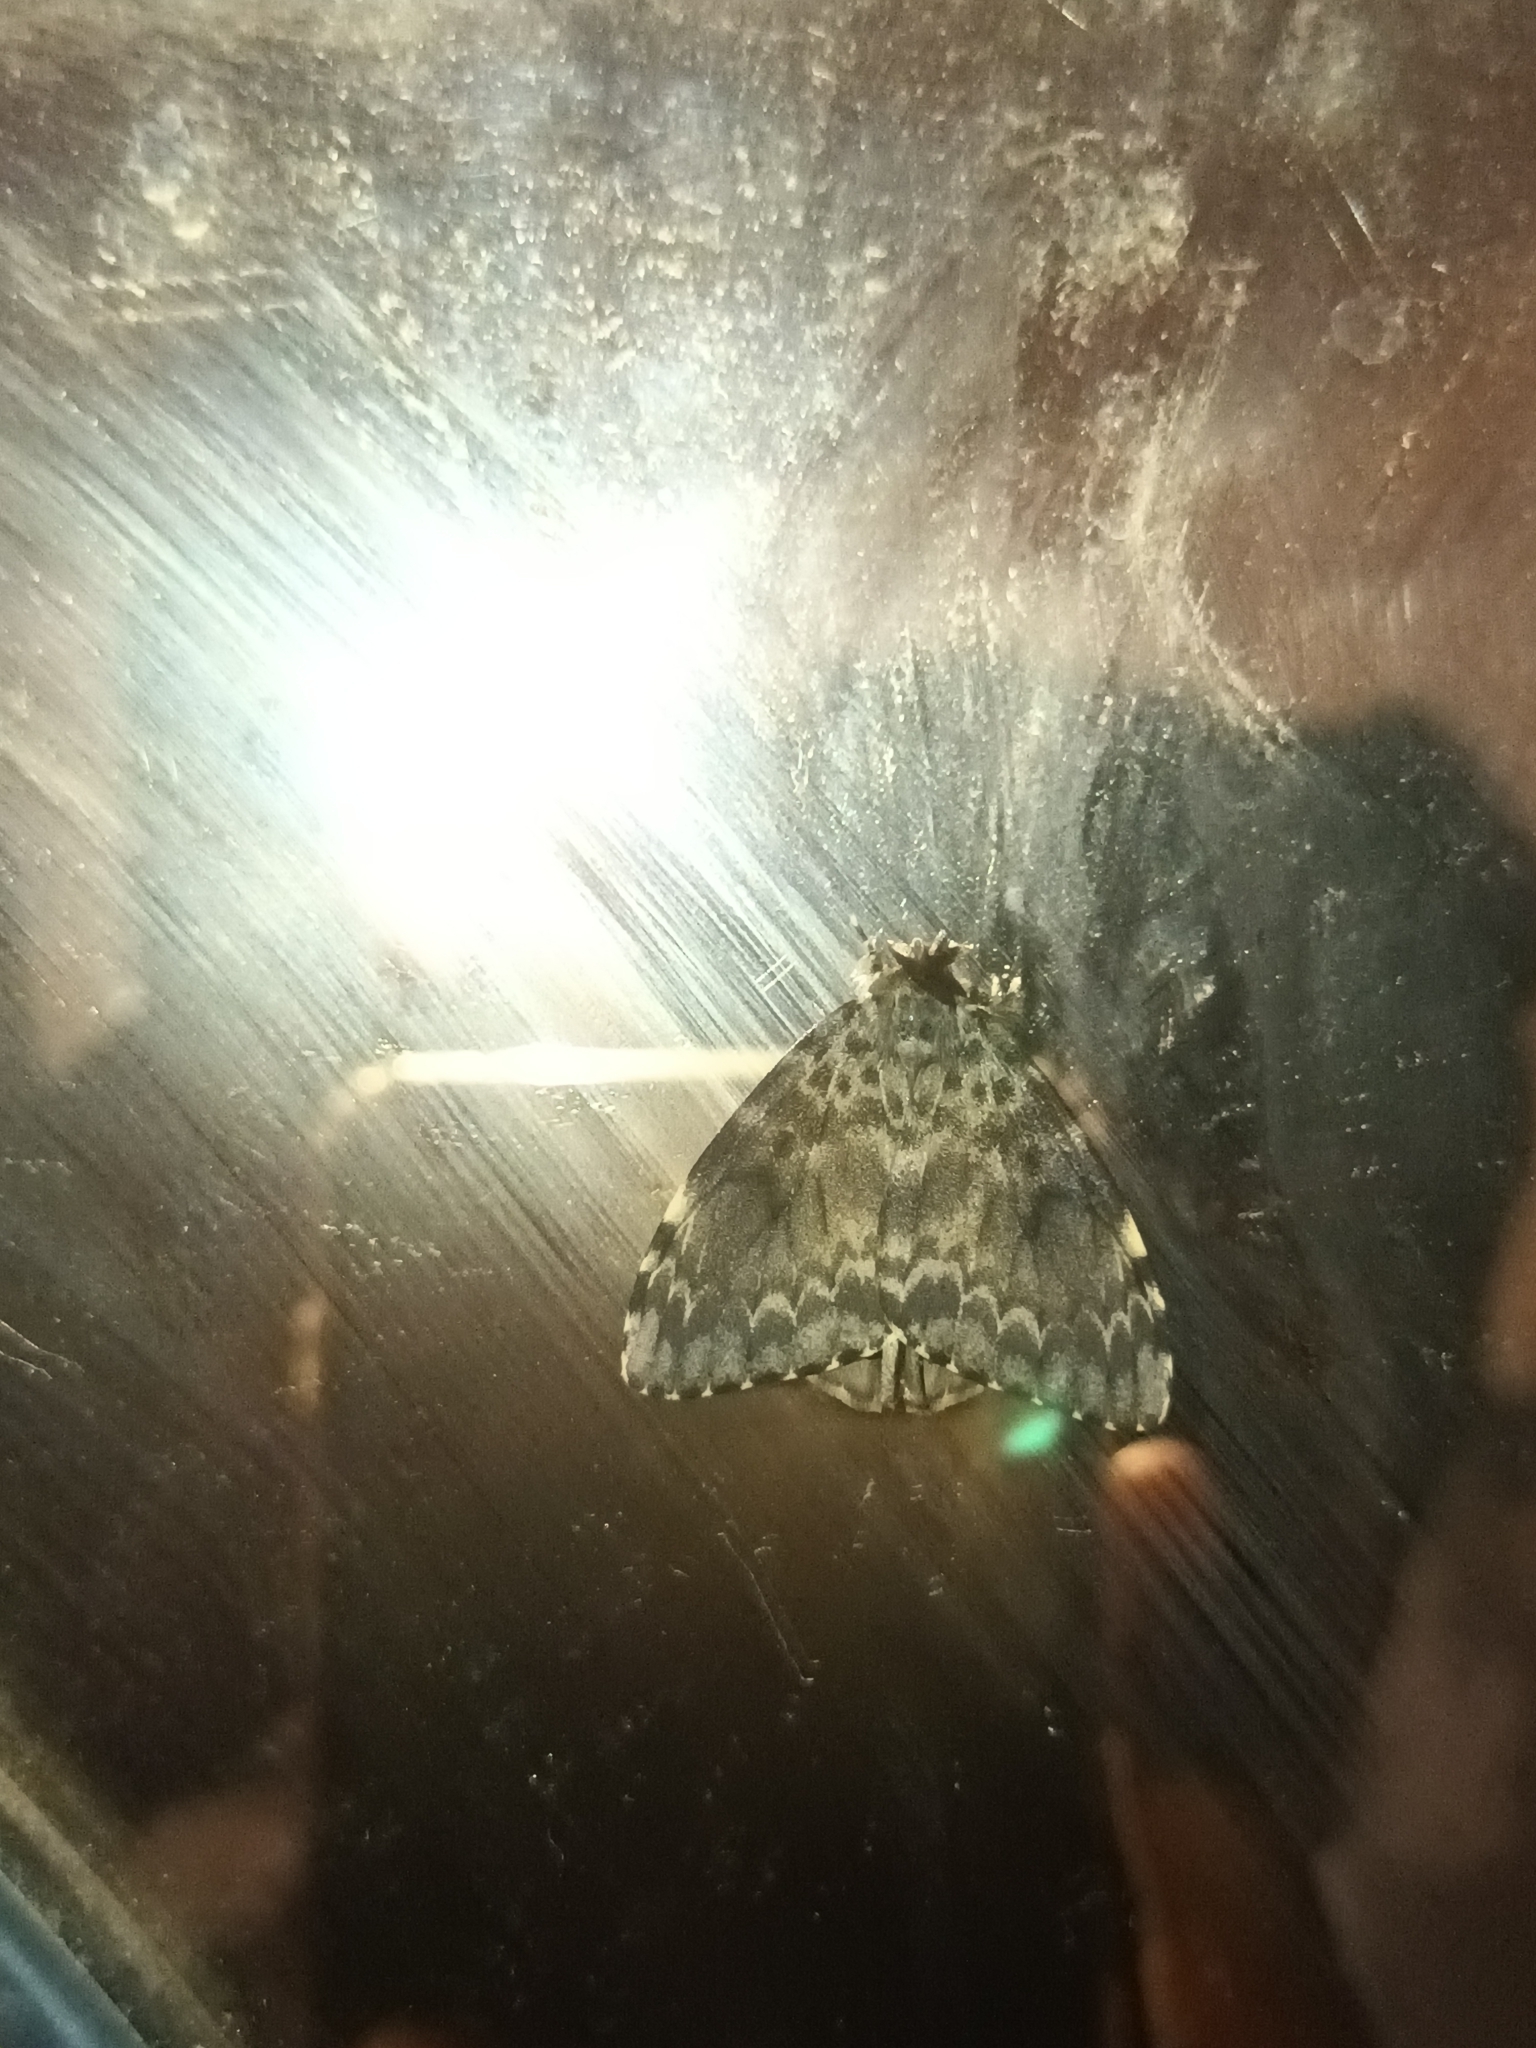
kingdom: Animalia
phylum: Arthropoda
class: Insecta
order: Lepidoptera
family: Erebidae
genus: Lymantria
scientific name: Lymantria ampla
